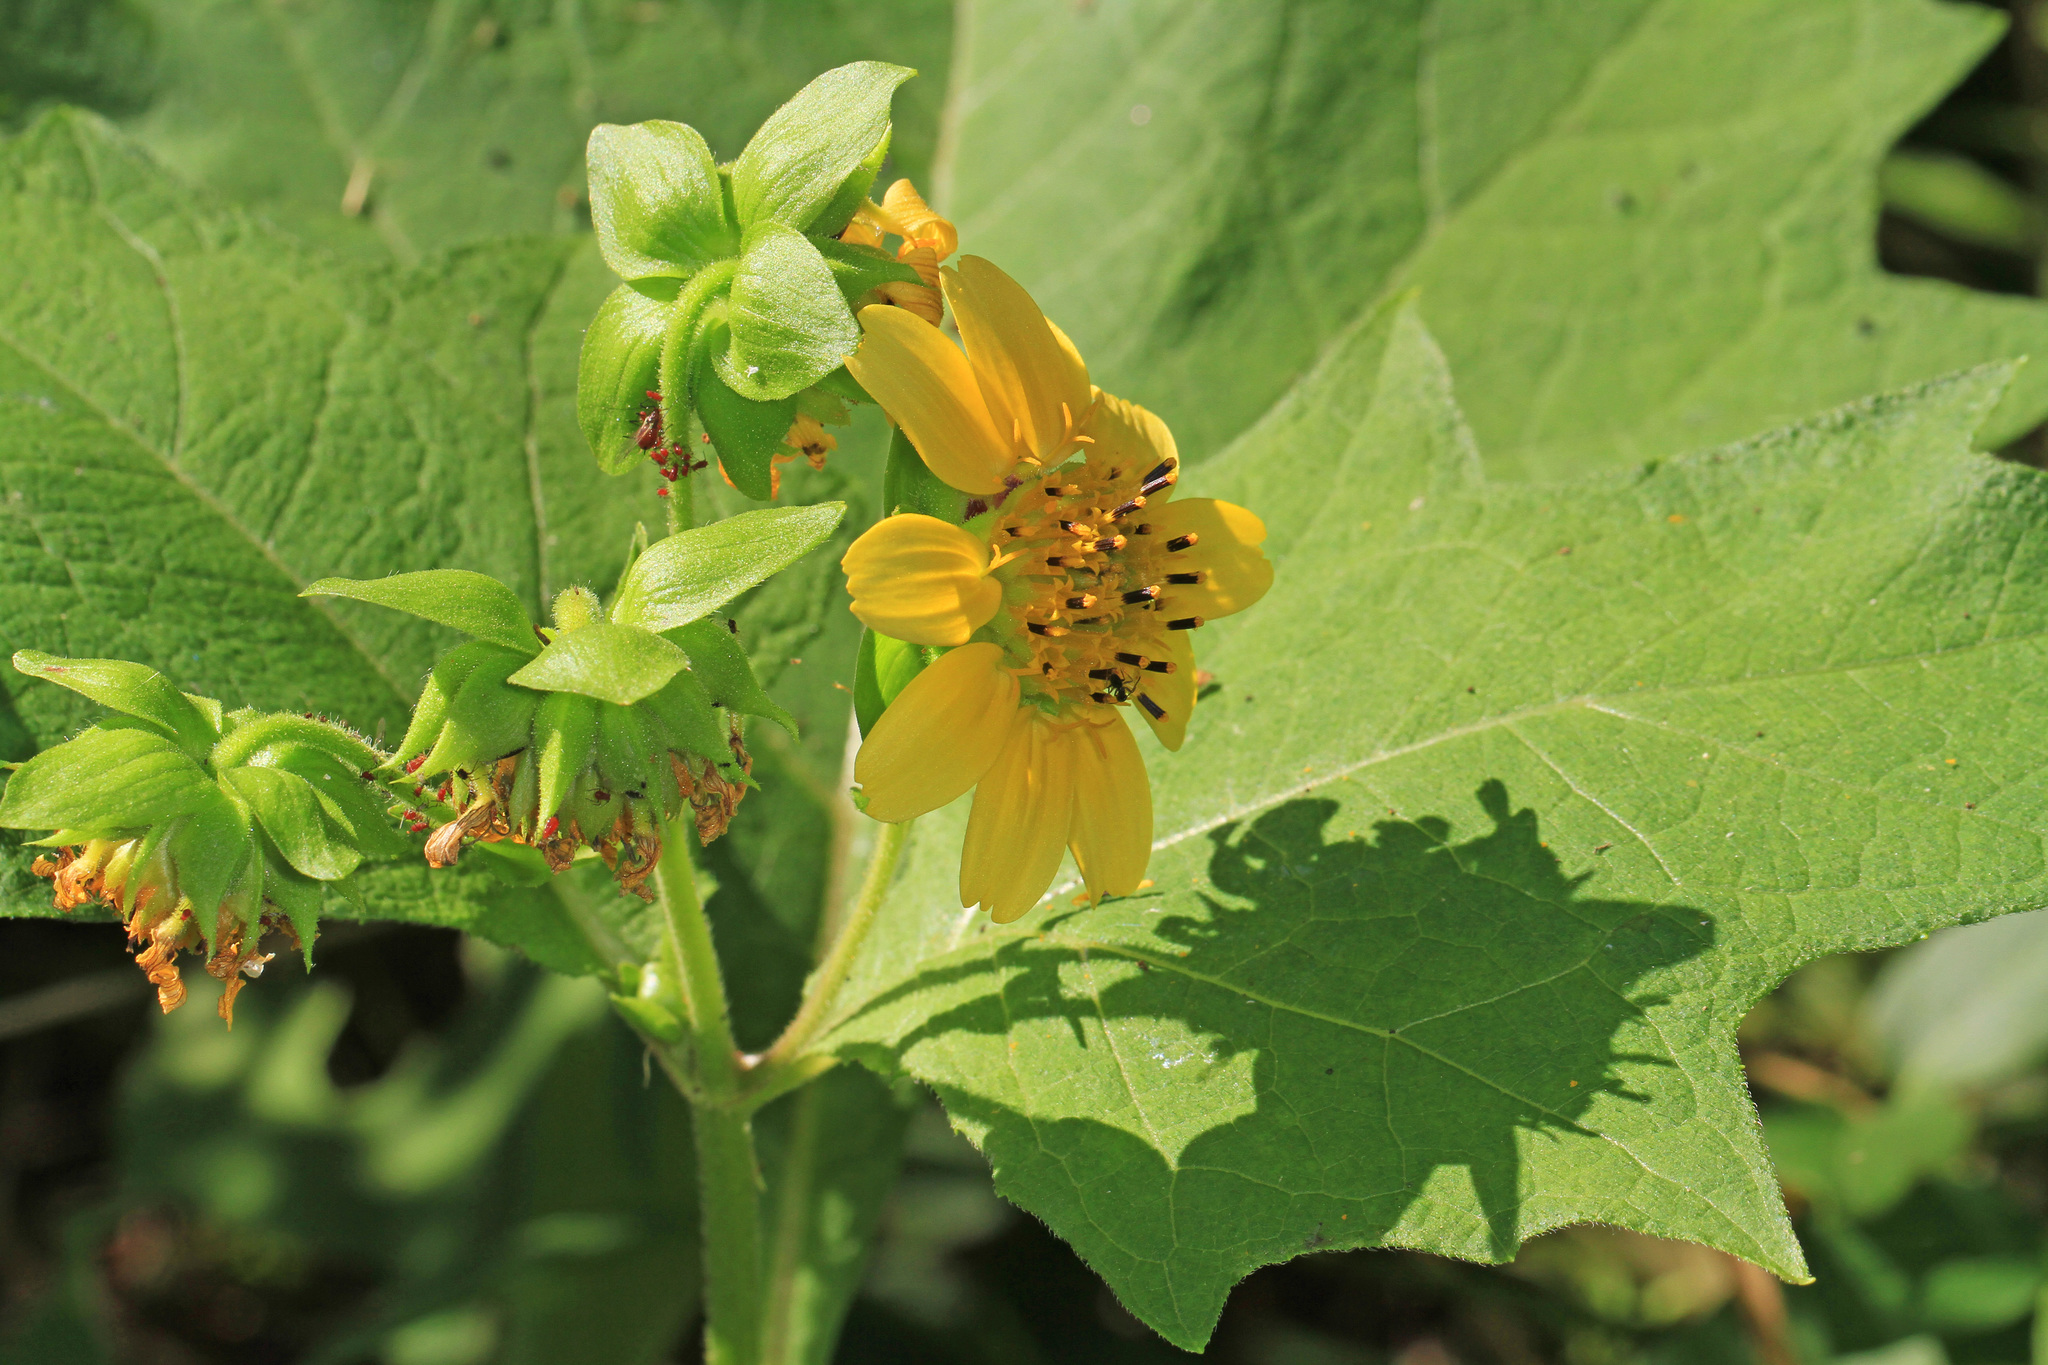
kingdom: Plantae
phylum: Tracheophyta
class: Magnoliopsida
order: Asterales
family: Asteraceae
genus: Smallanthus
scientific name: Smallanthus uvedalia
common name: Bear's-foot
